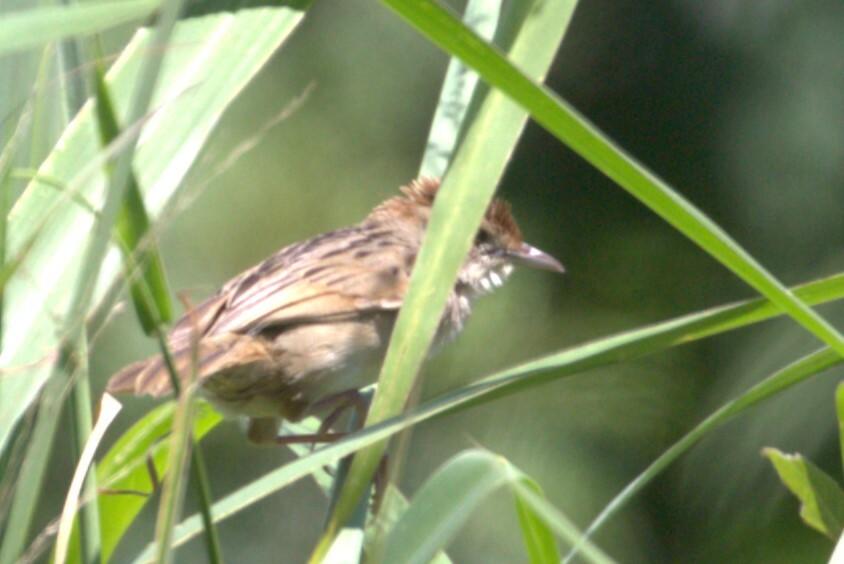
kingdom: Animalia
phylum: Chordata
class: Aves
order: Passeriformes
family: Locustellidae
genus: Megalurus
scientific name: Megalurus timoriensis
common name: Tawny grassbird
